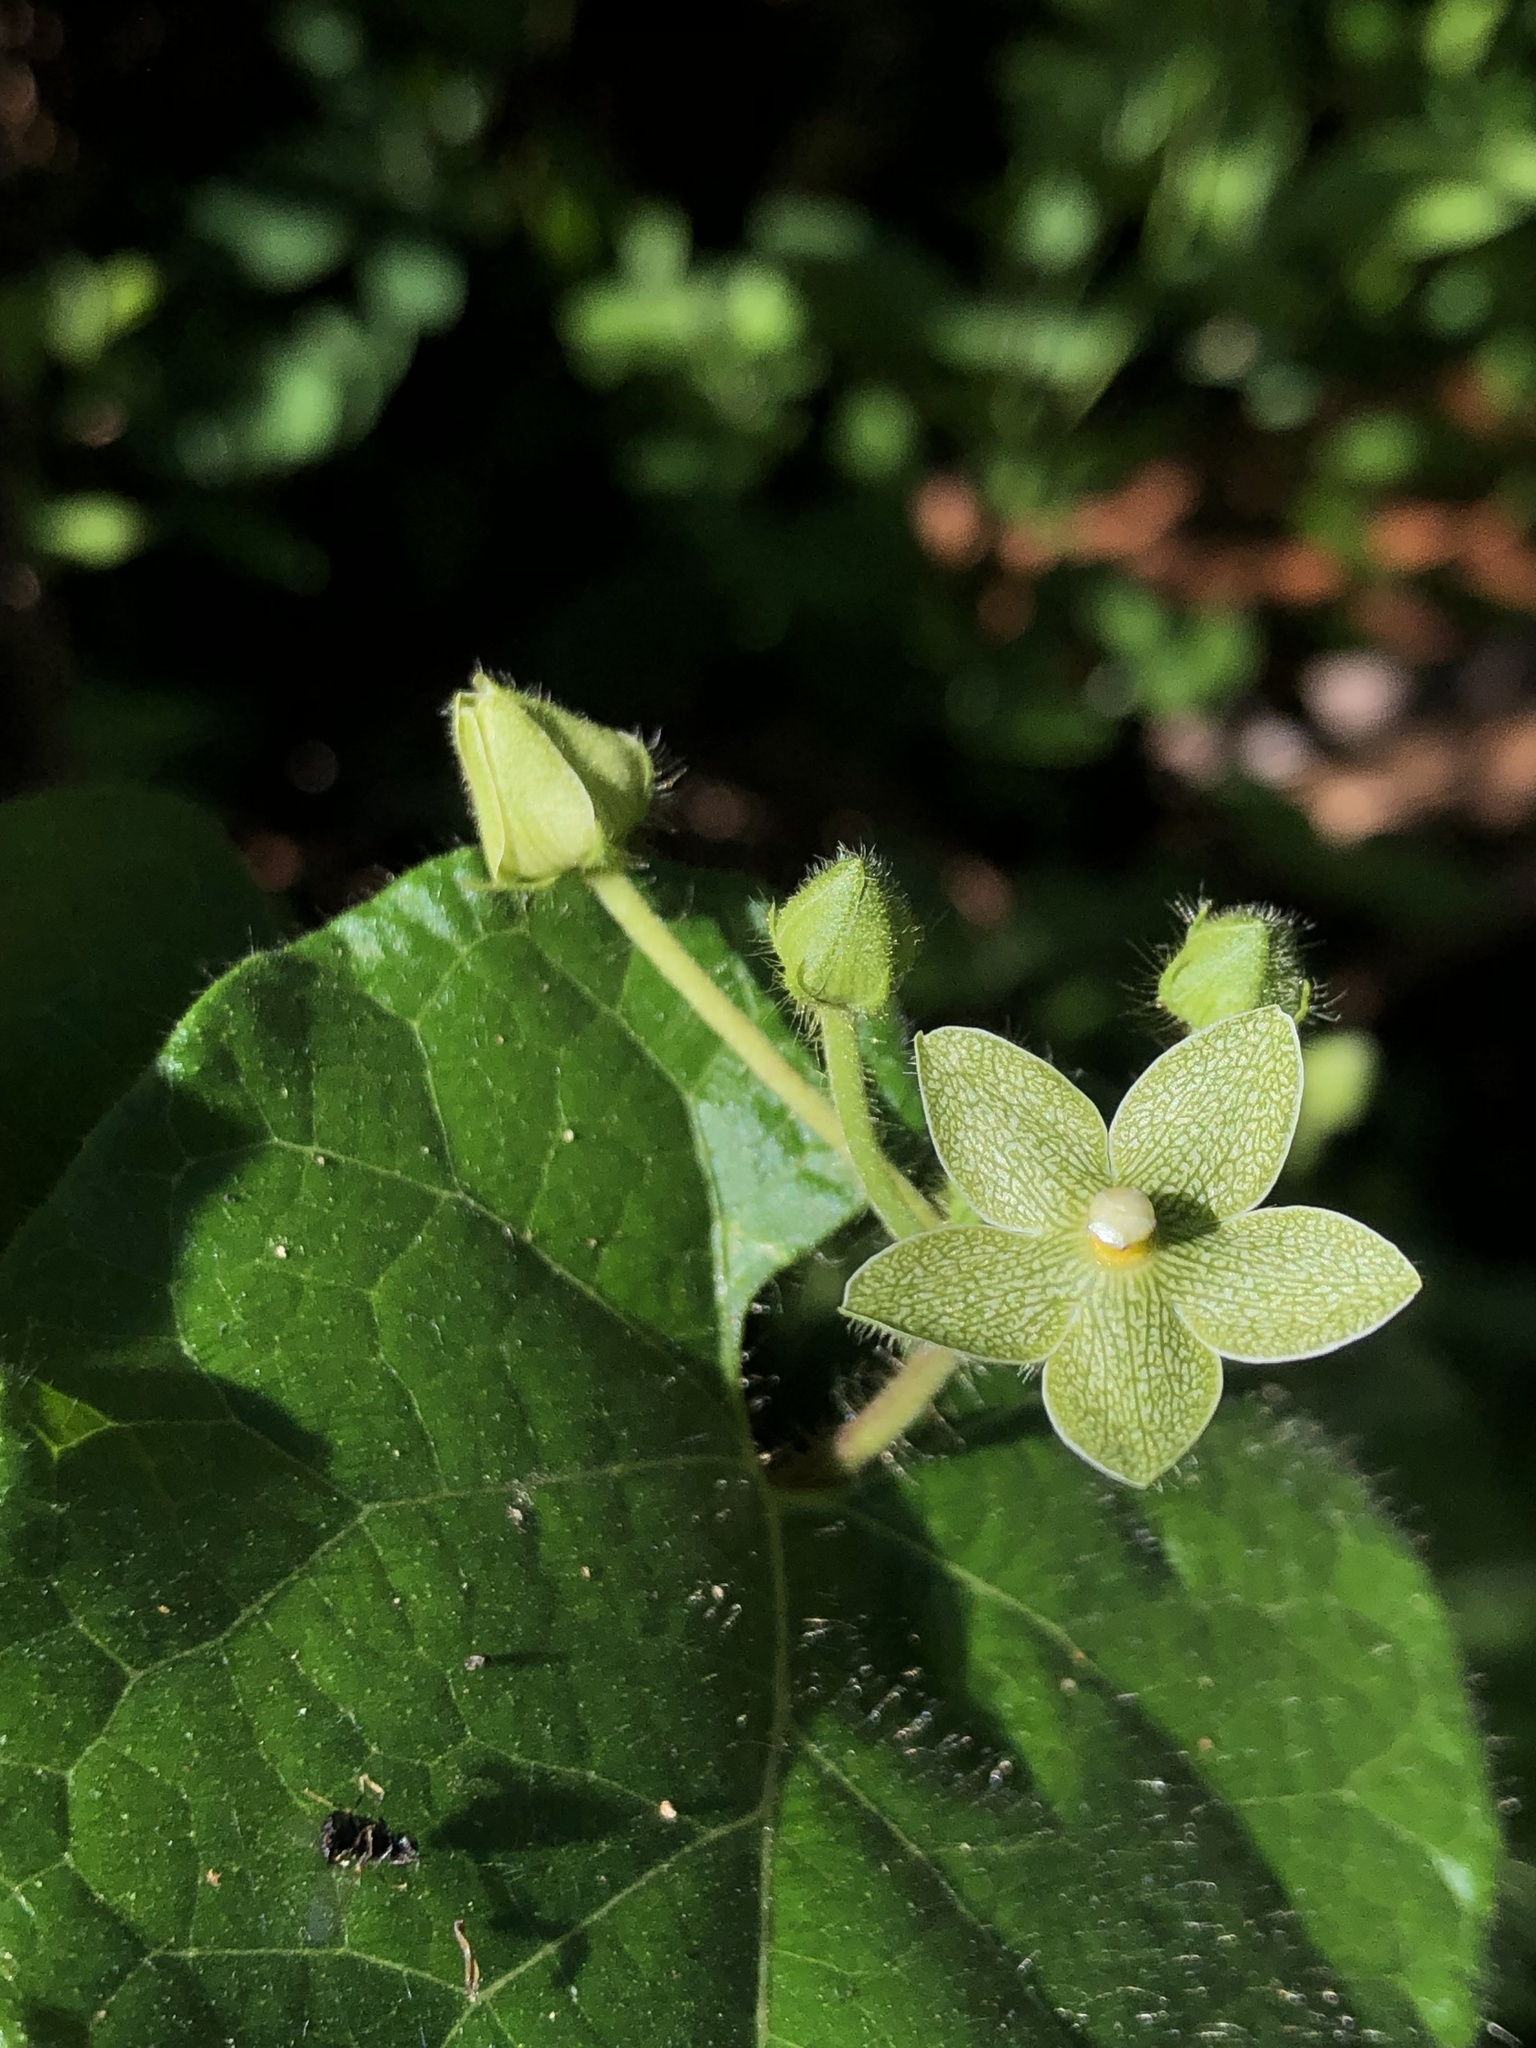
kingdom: Plantae
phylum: Tracheophyta
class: Magnoliopsida
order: Gentianales
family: Apocynaceae
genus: Dictyanthus
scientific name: Dictyanthus reticulatus
